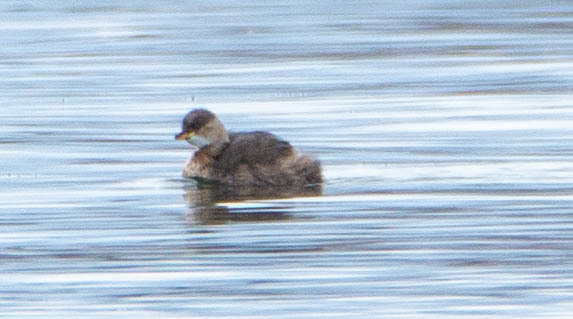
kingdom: Animalia
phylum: Chordata
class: Aves
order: Podicipediformes
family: Podicipedidae
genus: Tachybaptus
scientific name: Tachybaptus ruficollis
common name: Little grebe
